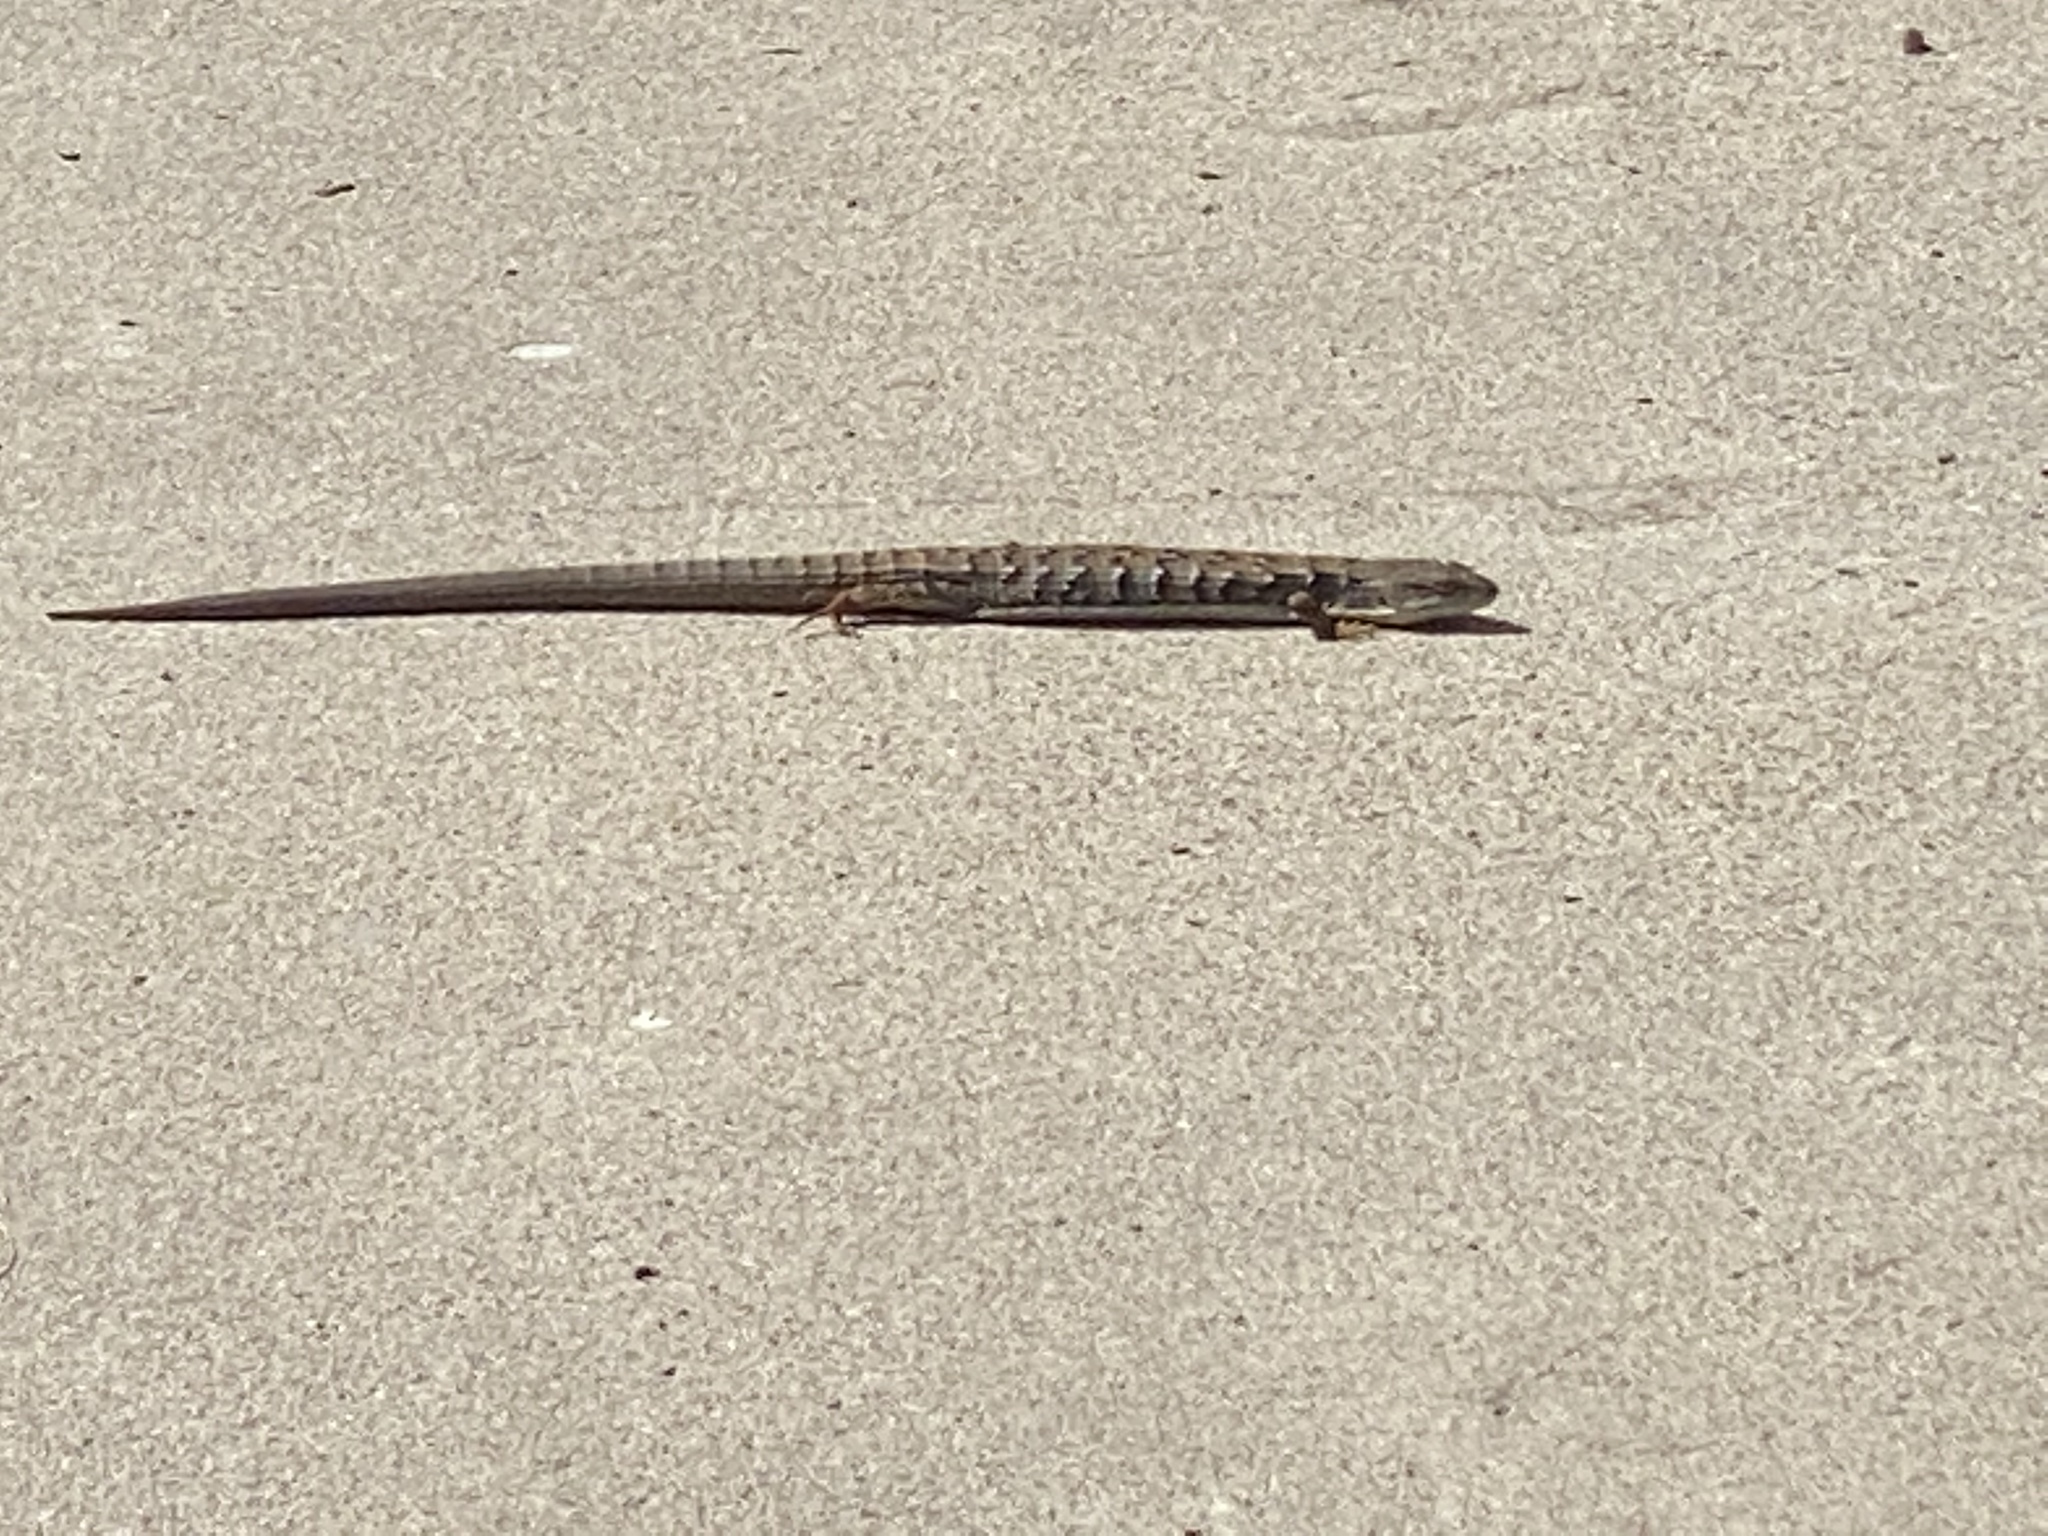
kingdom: Animalia
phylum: Chordata
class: Squamata
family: Anguidae
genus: Elgaria
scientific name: Elgaria multicarinata
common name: Southern alligator lizard
